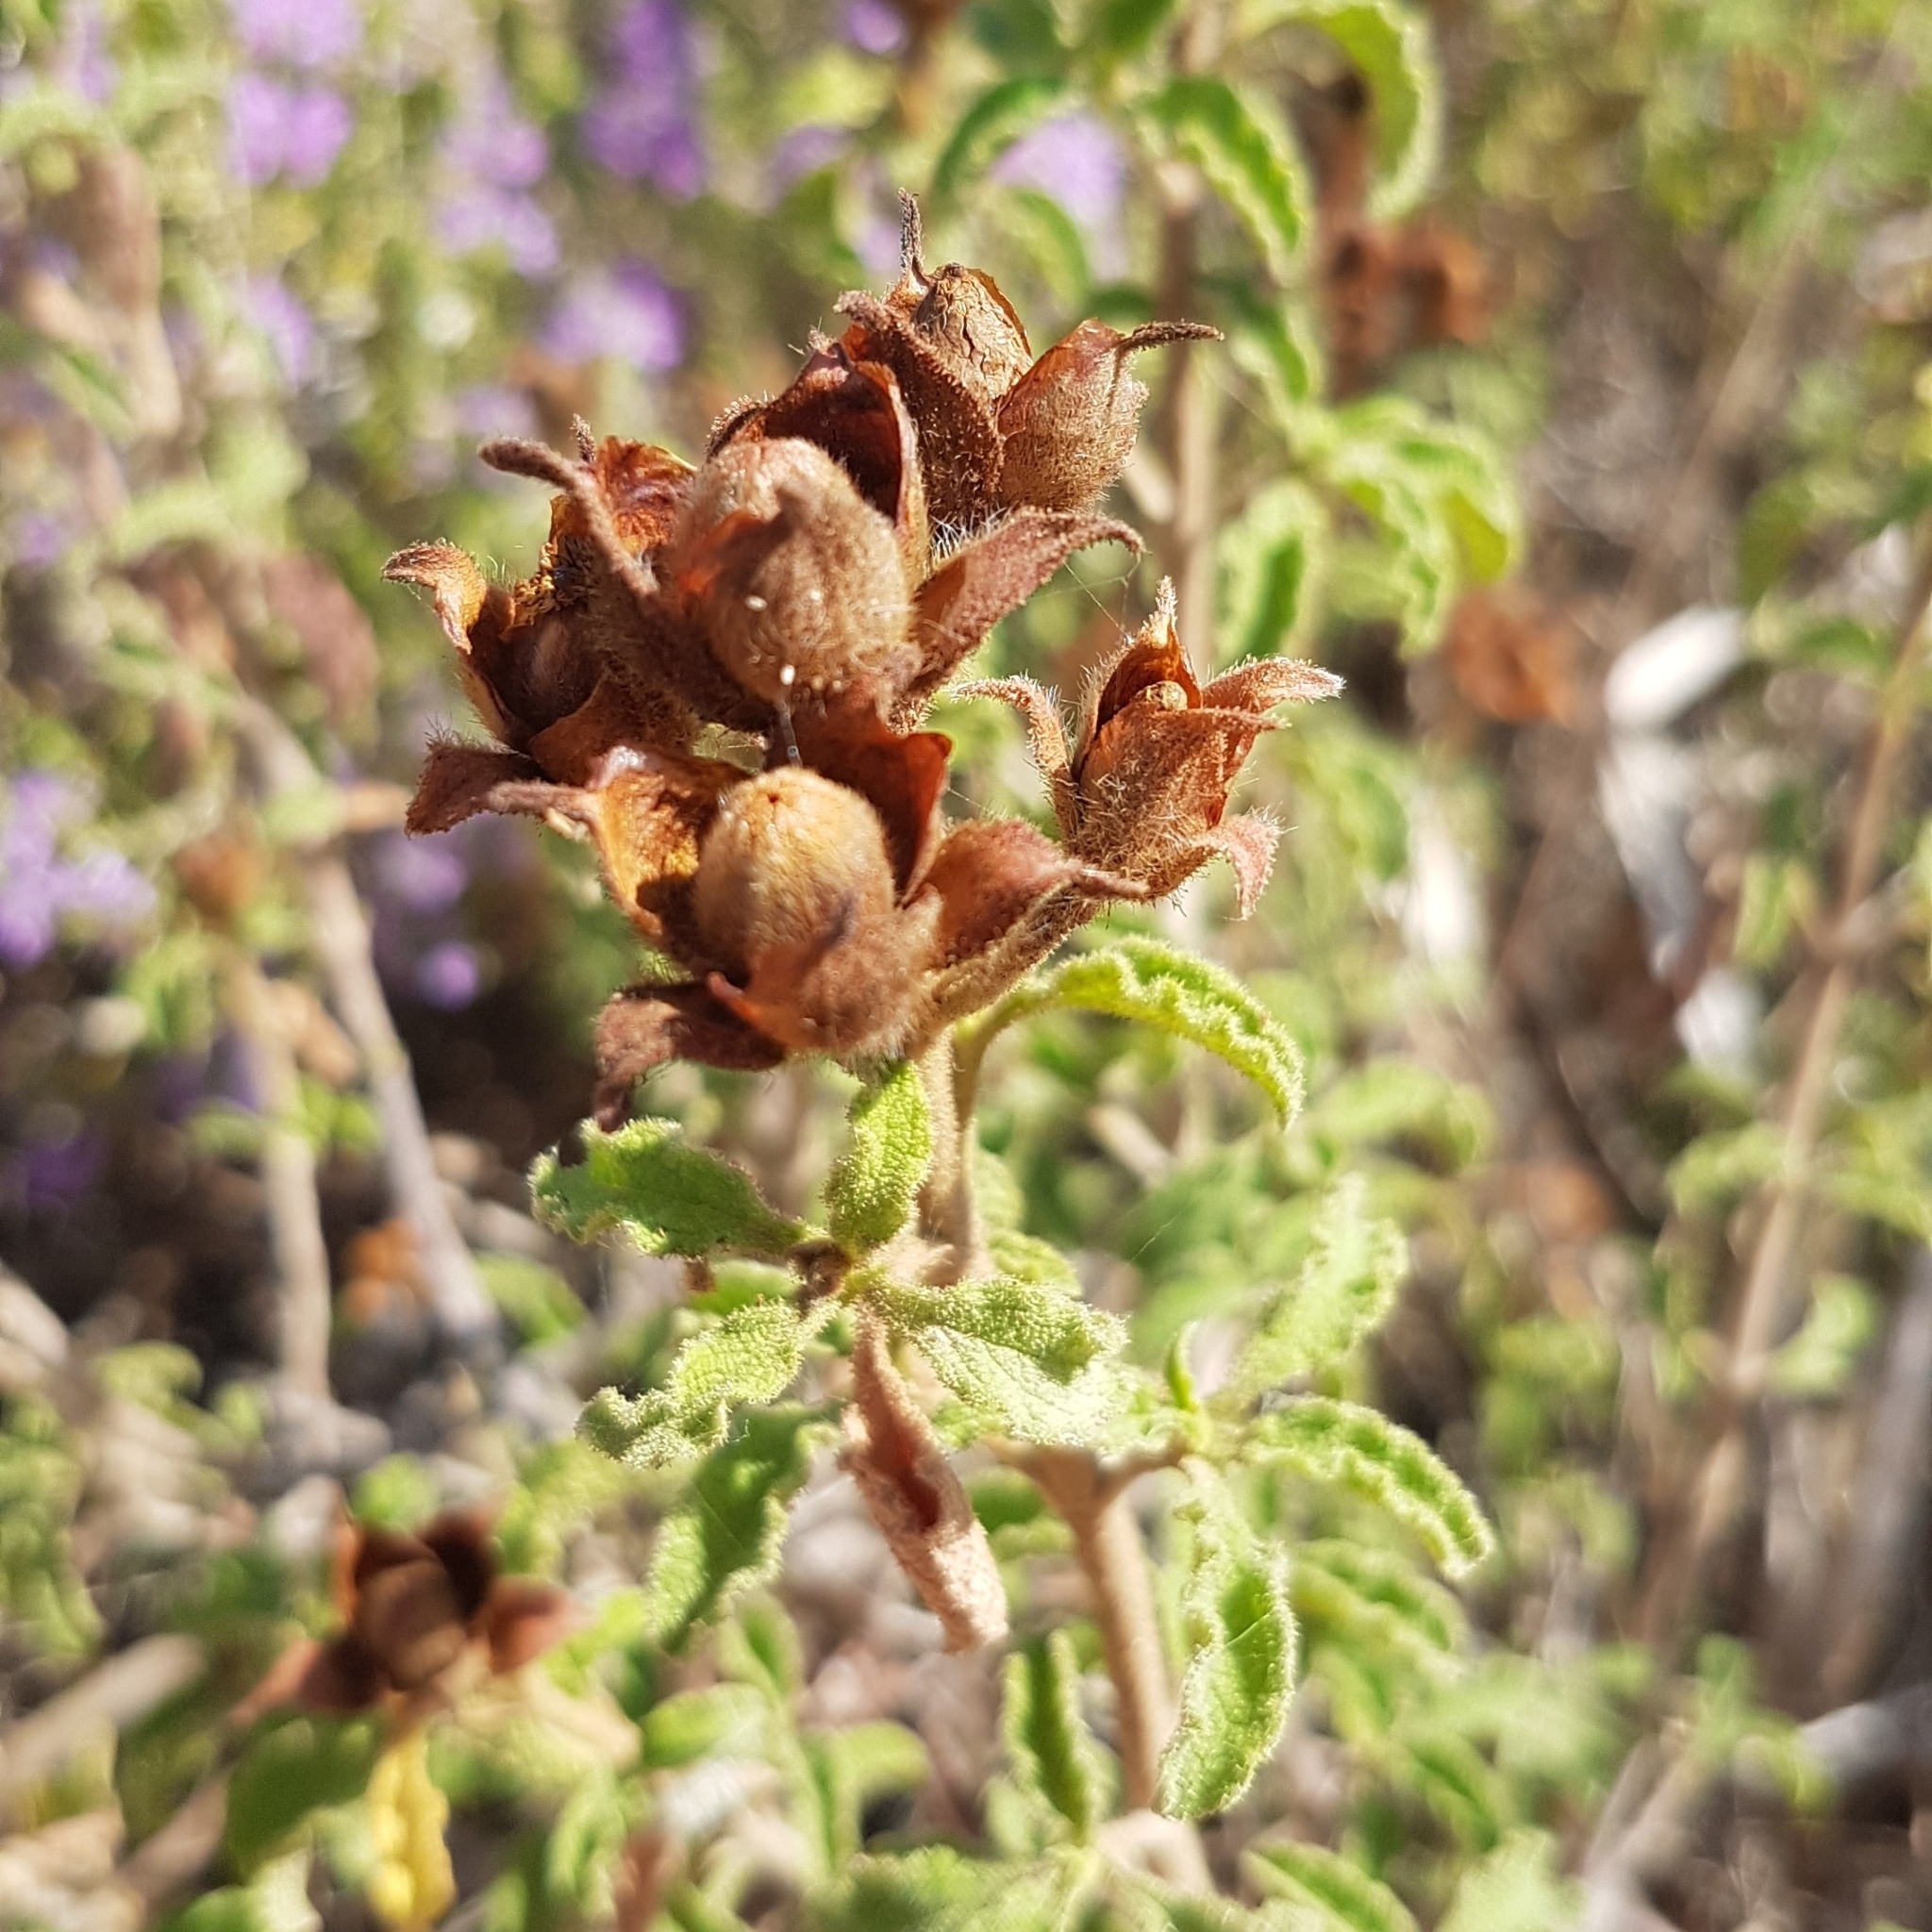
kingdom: Plantae
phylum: Tracheophyta
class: Magnoliopsida
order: Malvales
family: Cistaceae
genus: Cistus
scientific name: Cistus creticus
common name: Cretan rockrose
